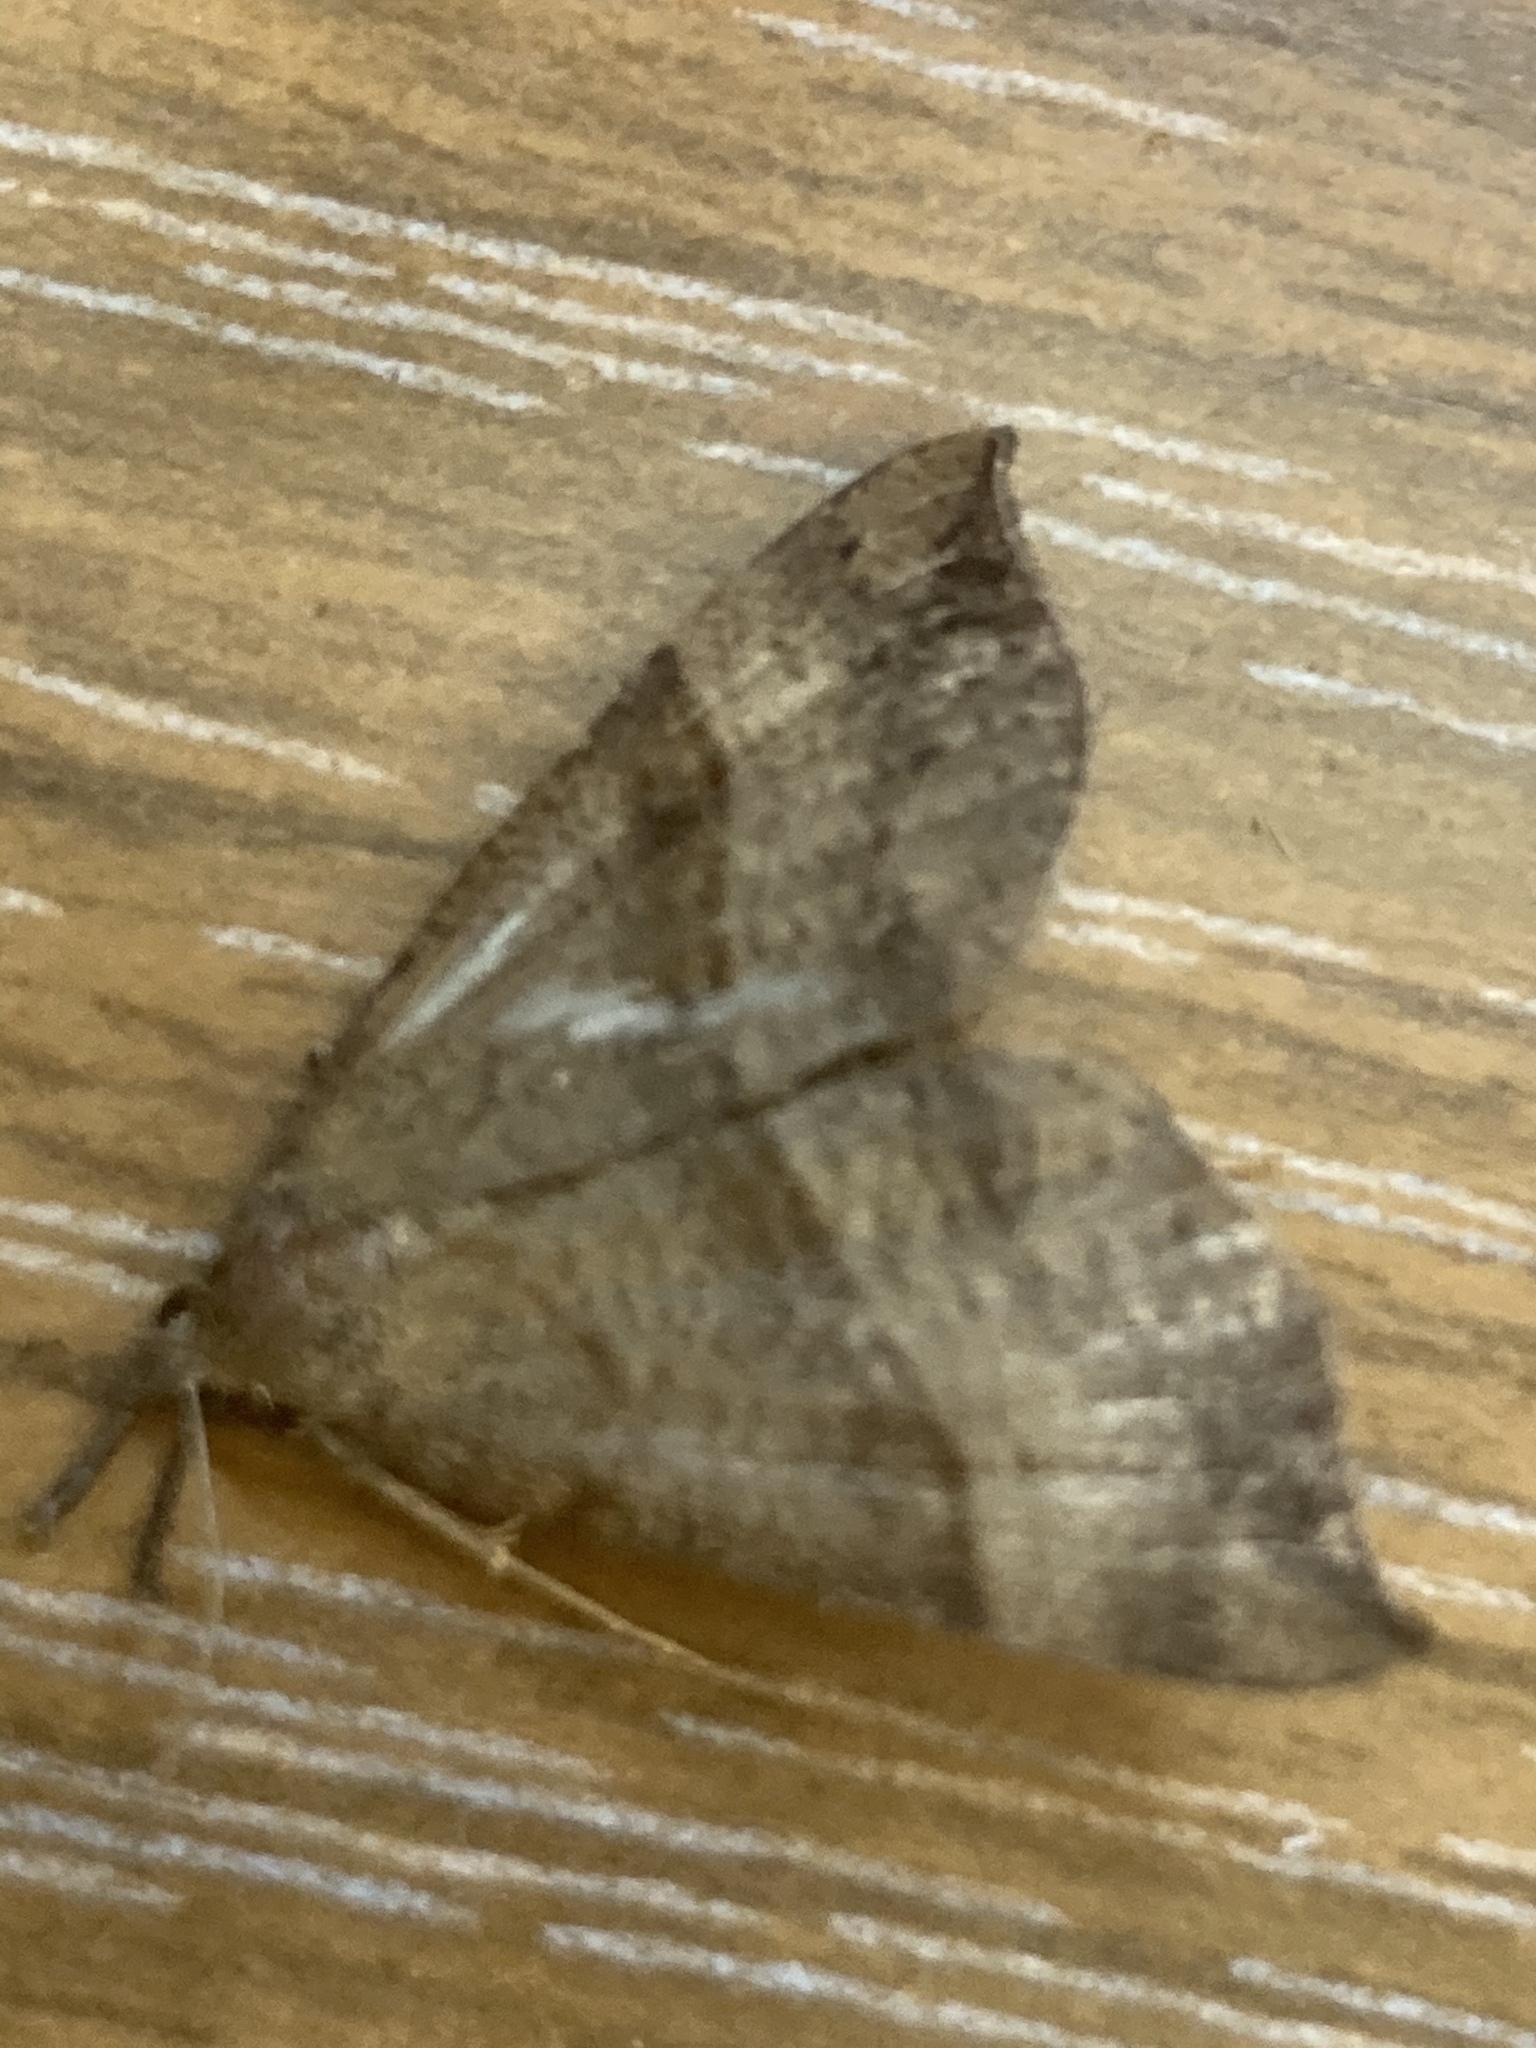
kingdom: Animalia
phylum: Arthropoda
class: Insecta
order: Lepidoptera
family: Erebidae
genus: Hypena
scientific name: Hypena proboscidalis
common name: Snout
